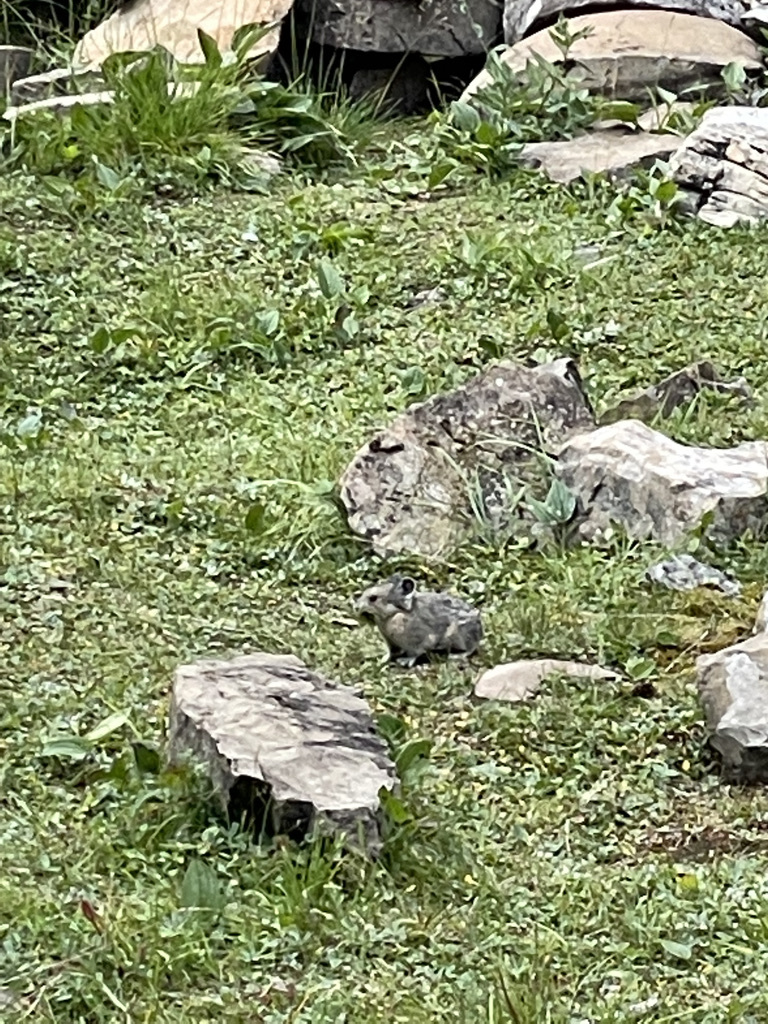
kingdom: Animalia
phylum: Chordata
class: Mammalia
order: Lagomorpha
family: Ochotonidae
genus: Ochotona
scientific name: Ochotona princeps
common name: American pika
